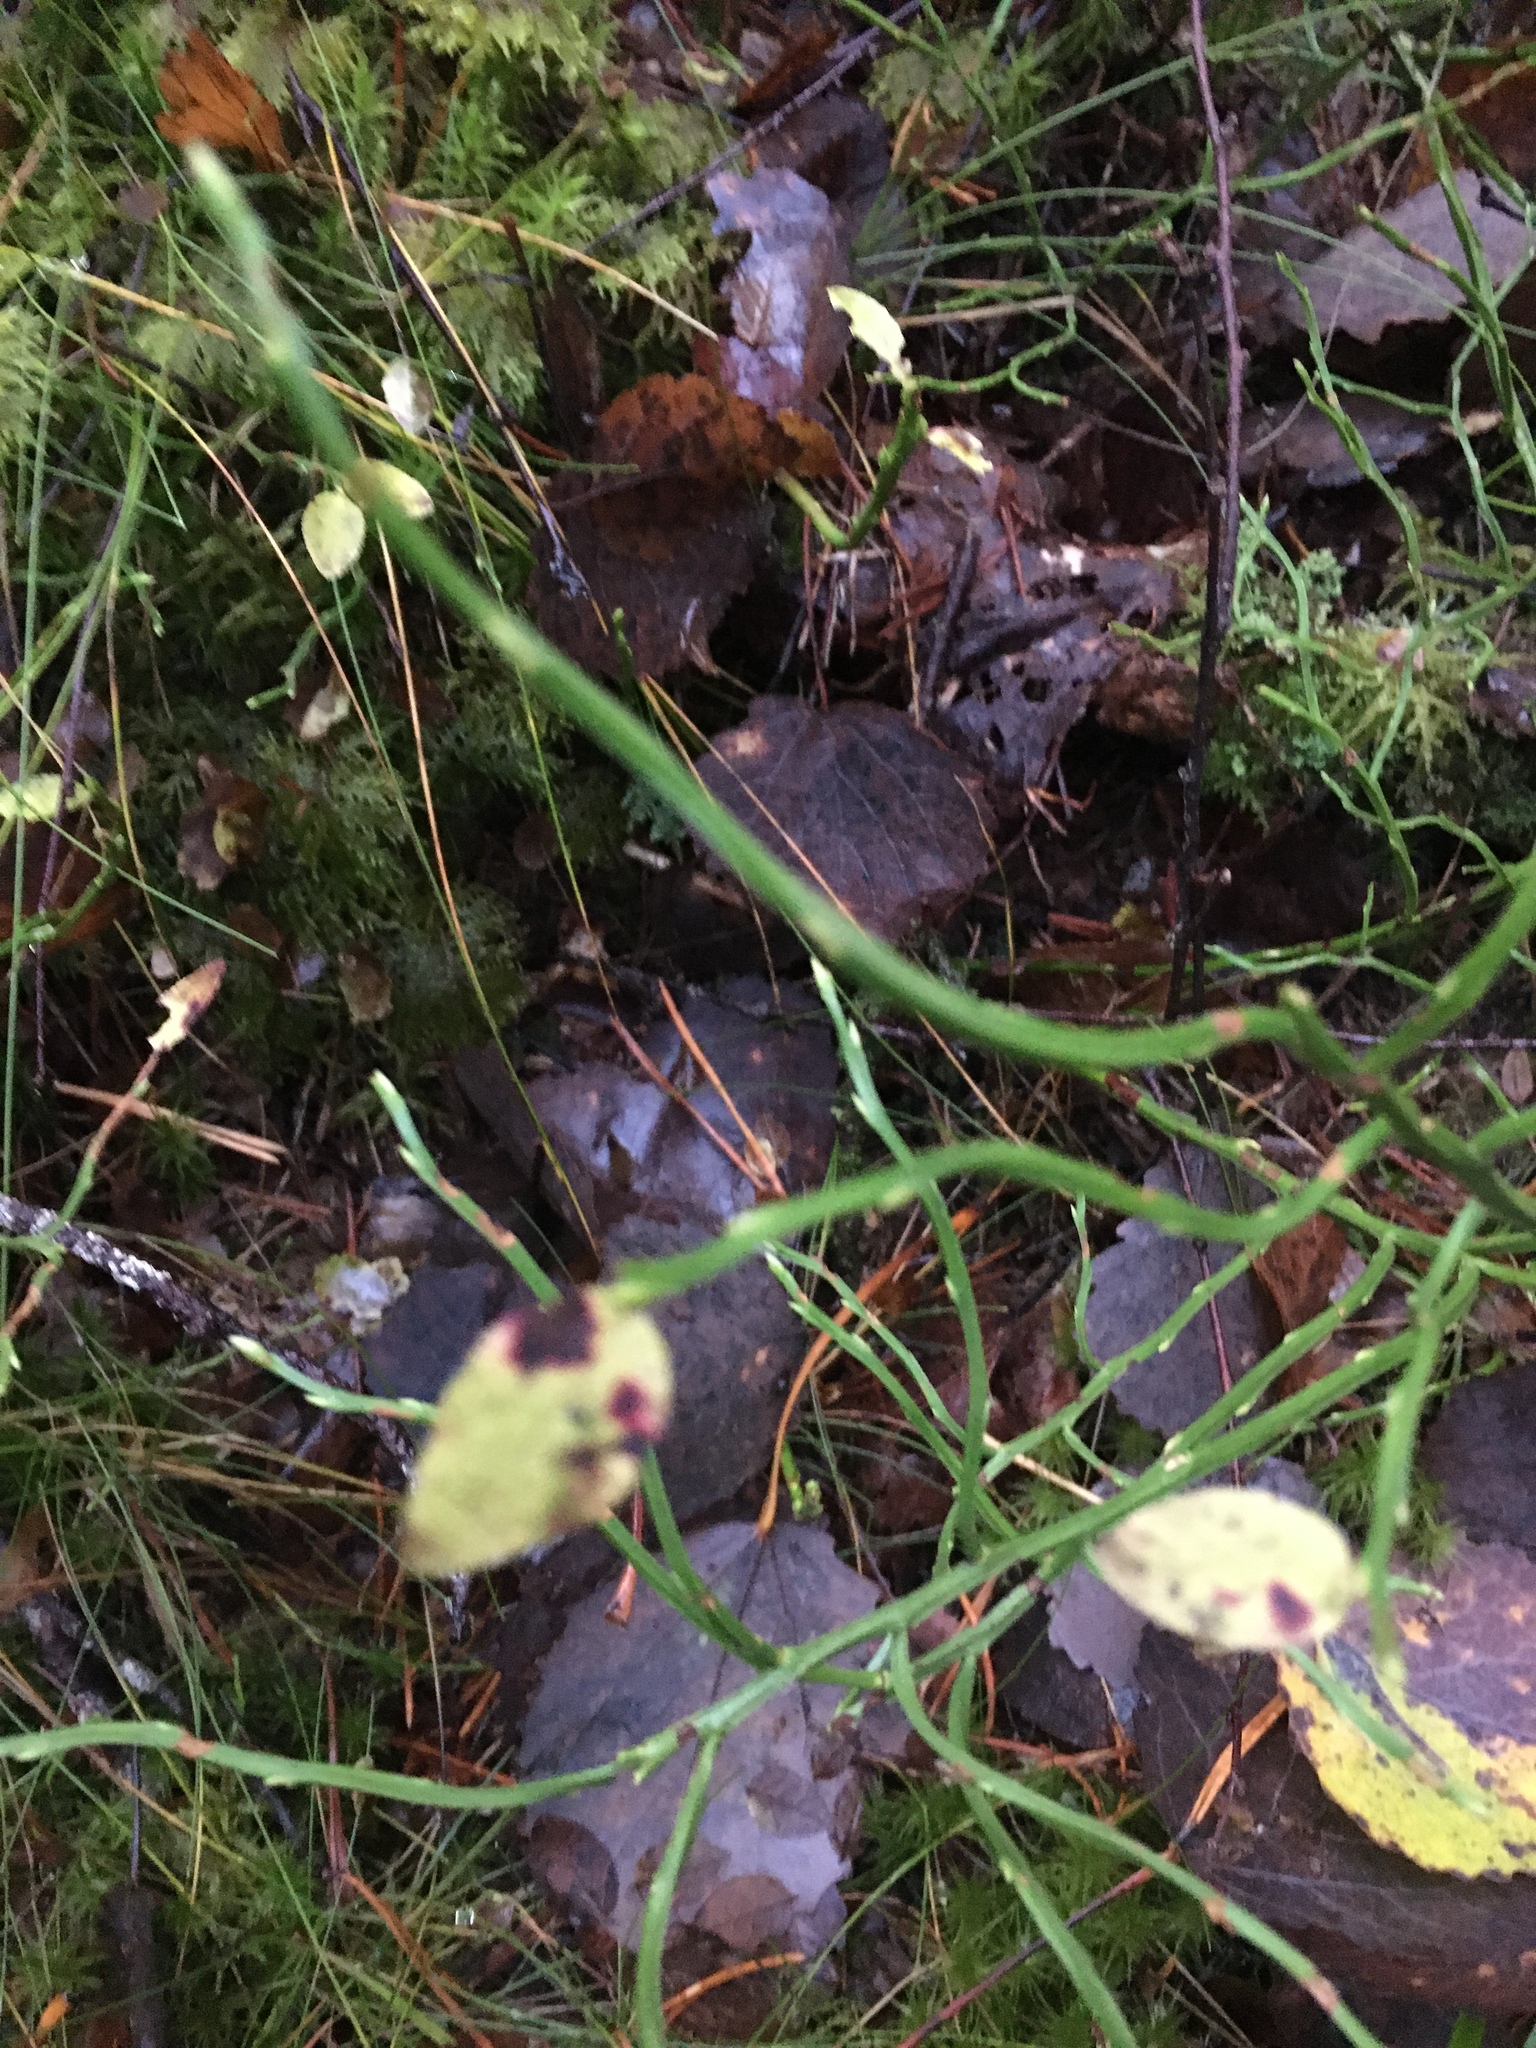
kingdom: Plantae
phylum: Tracheophyta
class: Magnoliopsida
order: Ericales
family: Ericaceae
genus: Vaccinium
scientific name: Vaccinium myrtillus
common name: Bilberry
